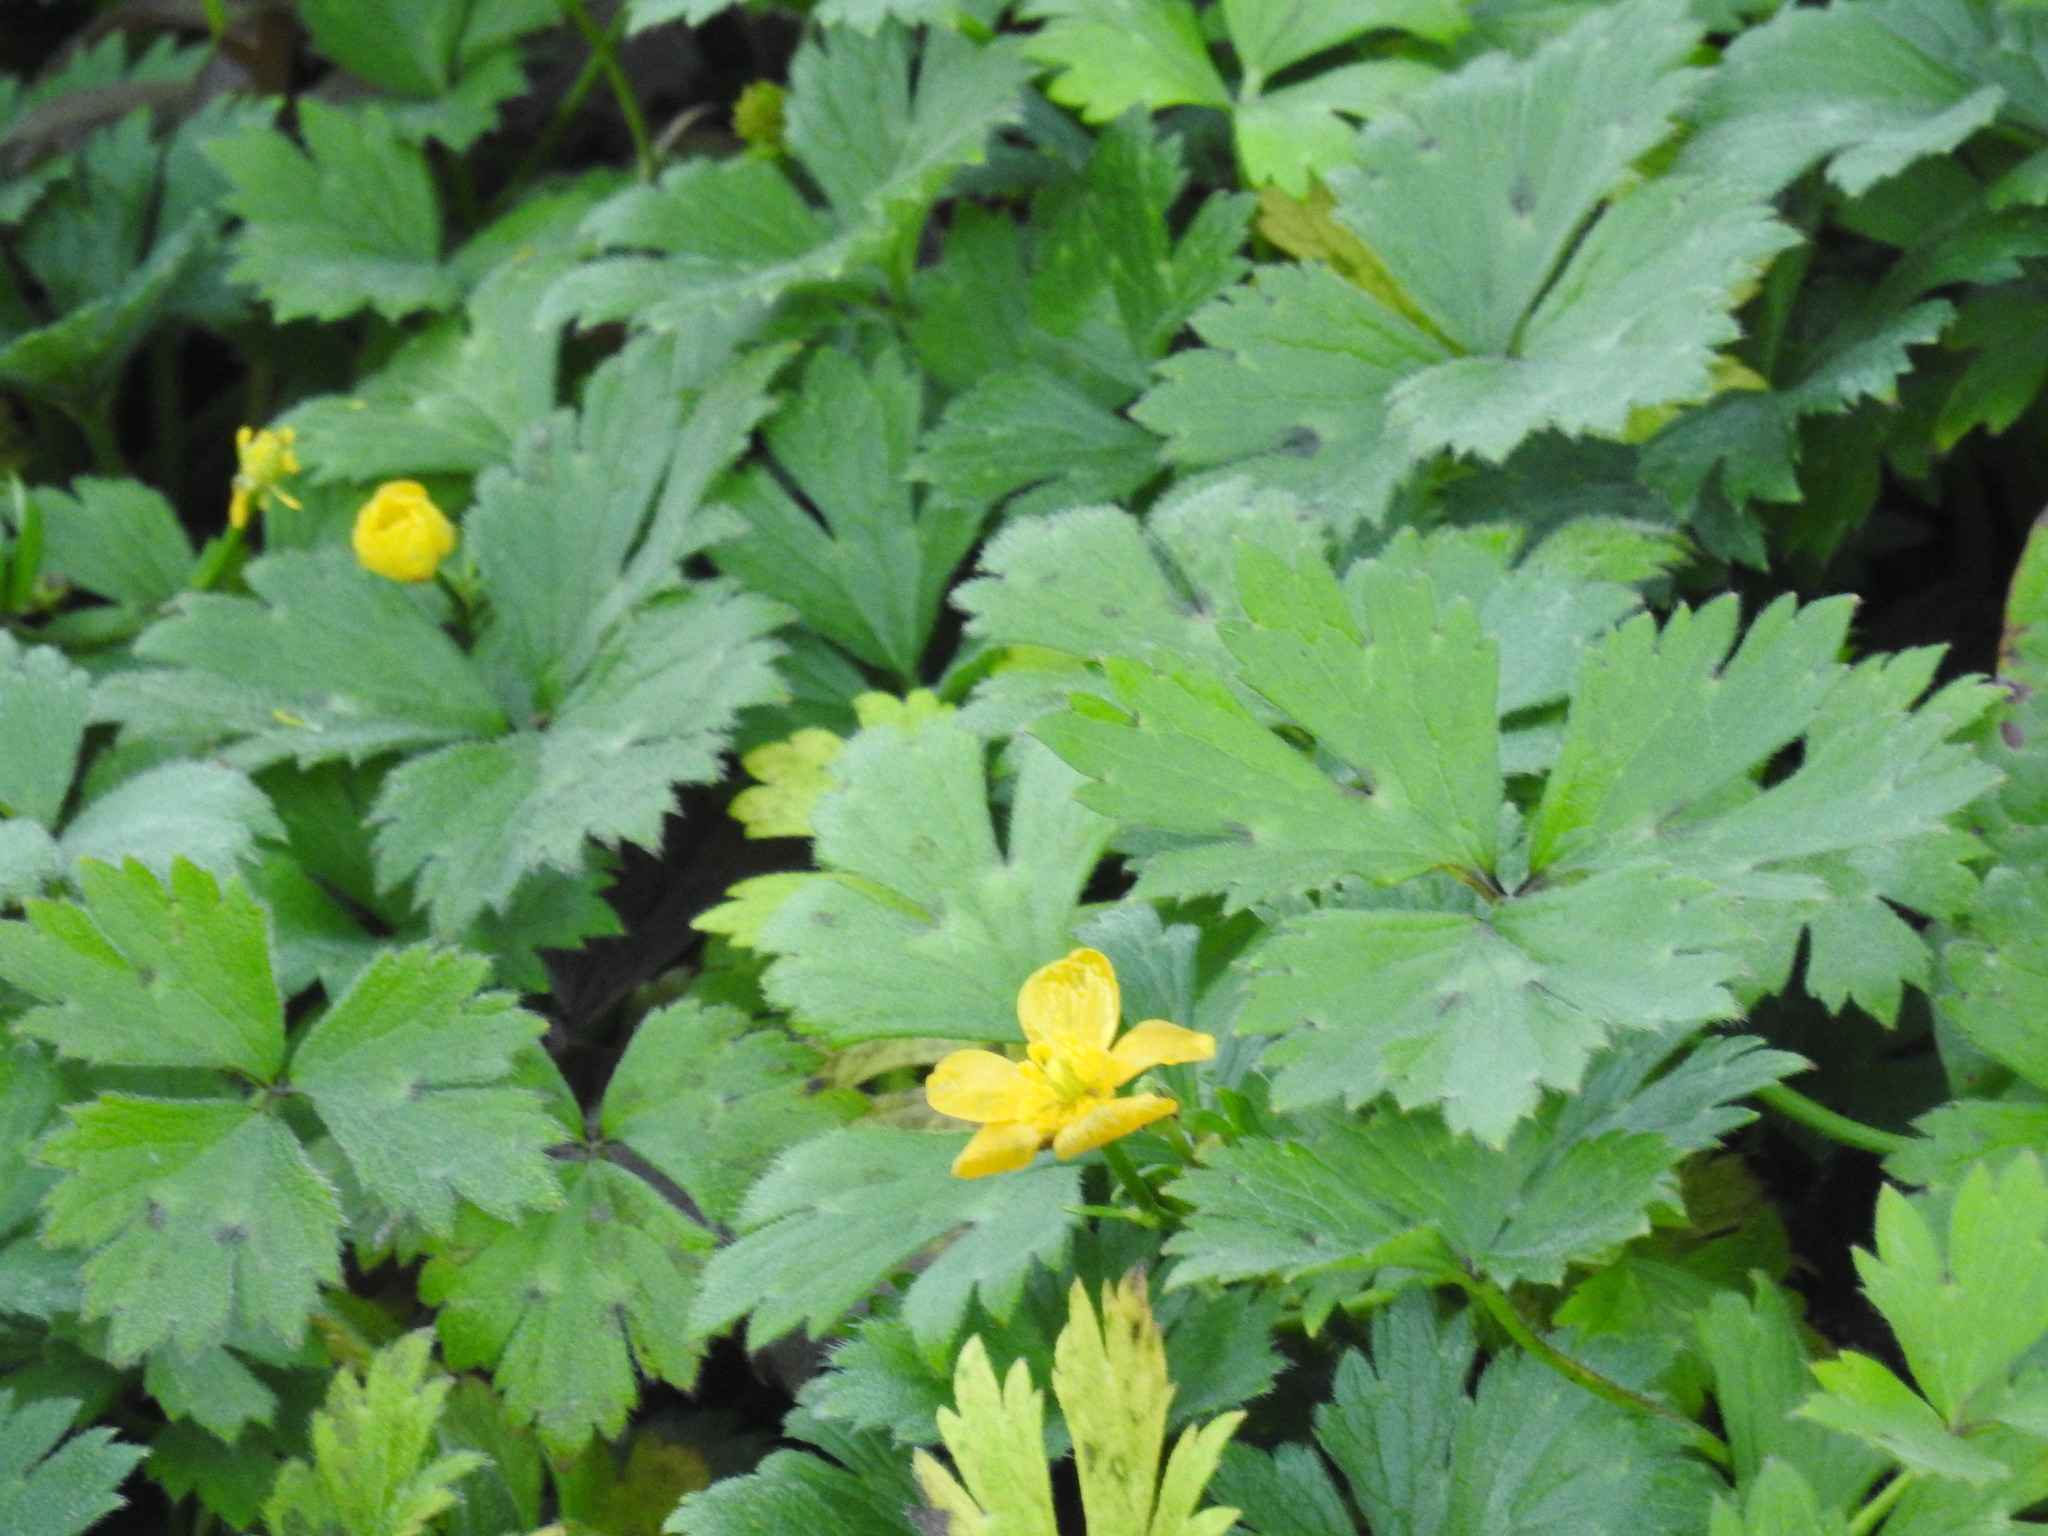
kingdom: Plantae
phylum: Tracheophyta
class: Magnoliopsida
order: Ranunculales
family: Ranunculaceae
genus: Ranunculus
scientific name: Ranunculus repens
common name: Creeping buttercup
